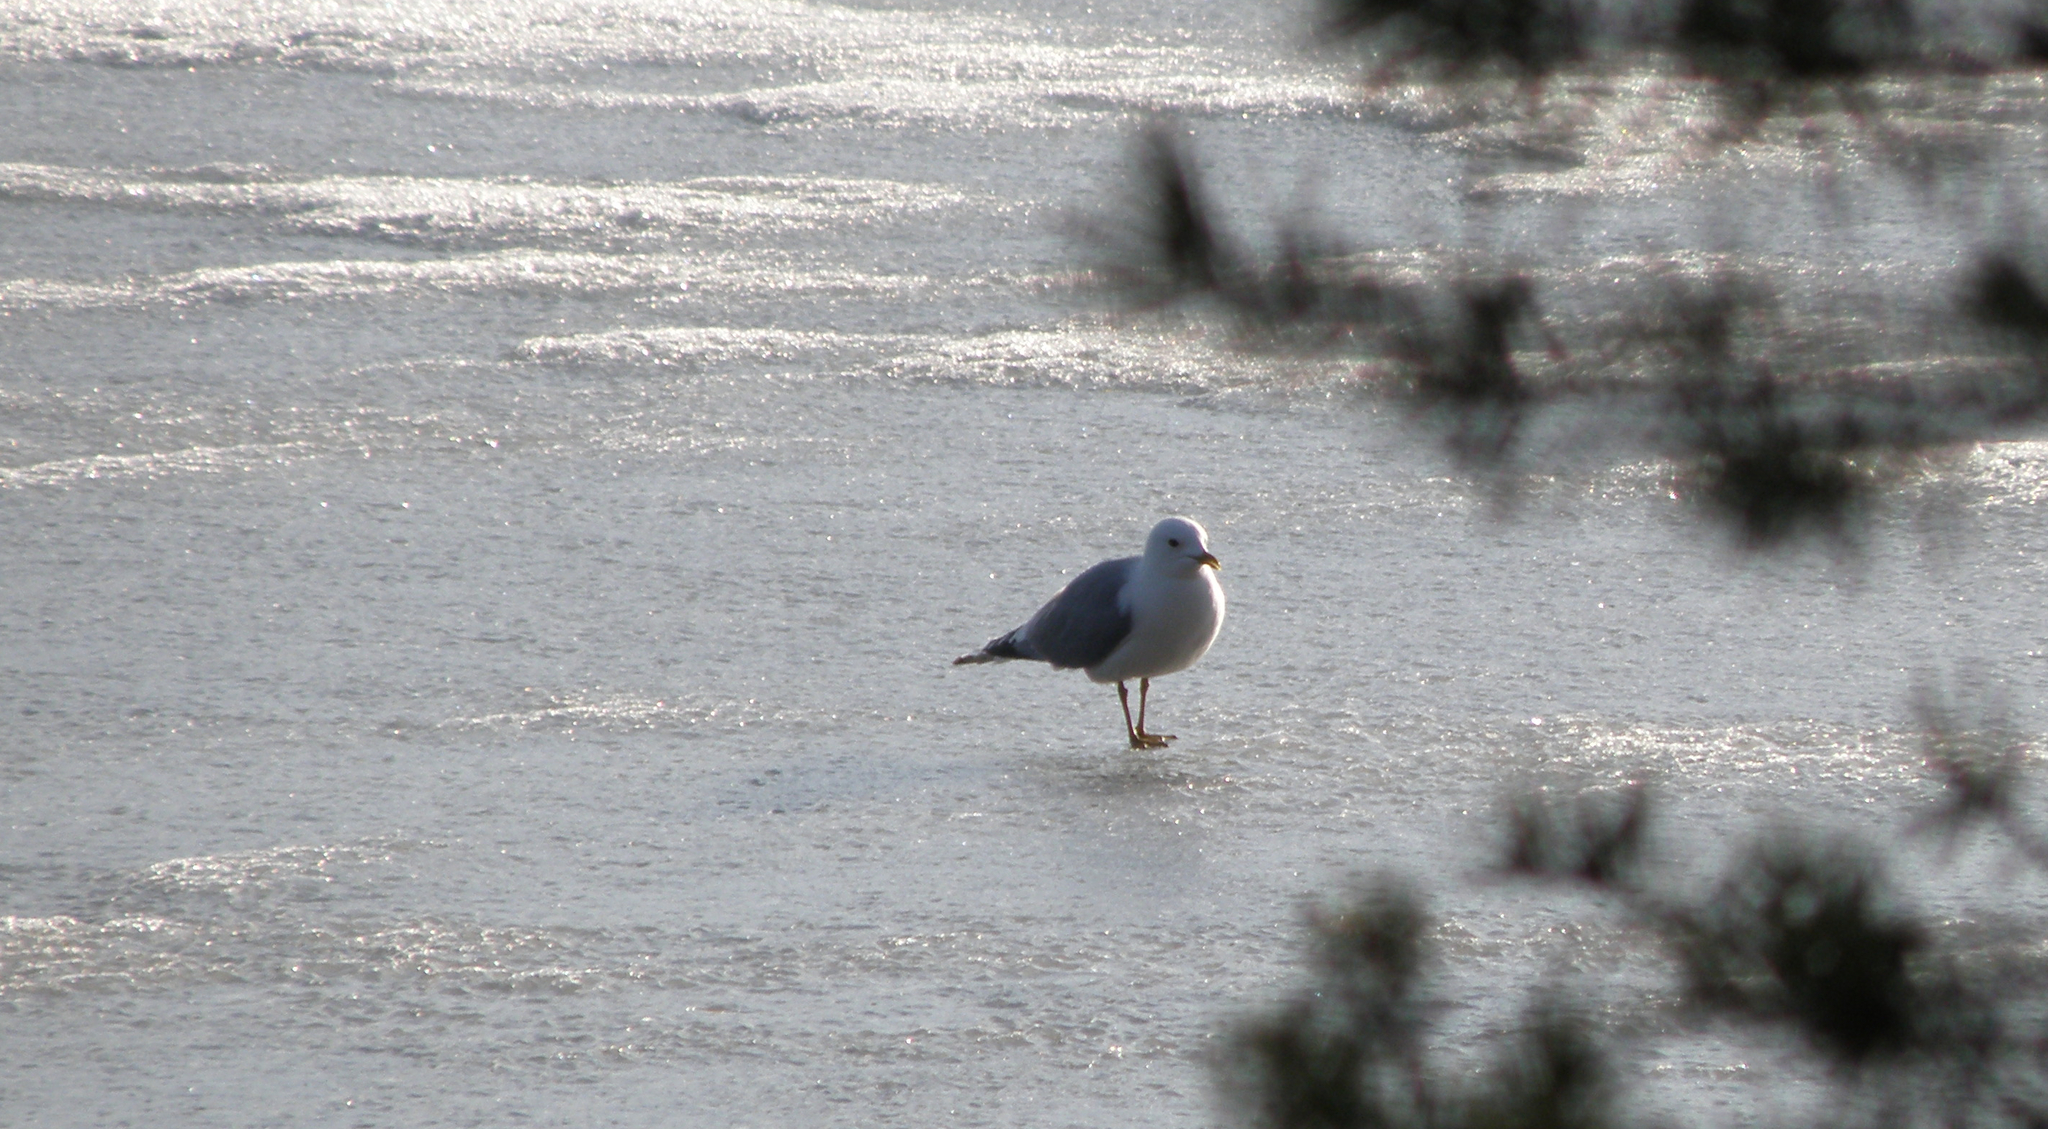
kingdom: Animalia
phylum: Chordata
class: Aves
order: Charadriiformes
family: Laridae
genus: Larus
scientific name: Larus canus
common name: Mew gull
